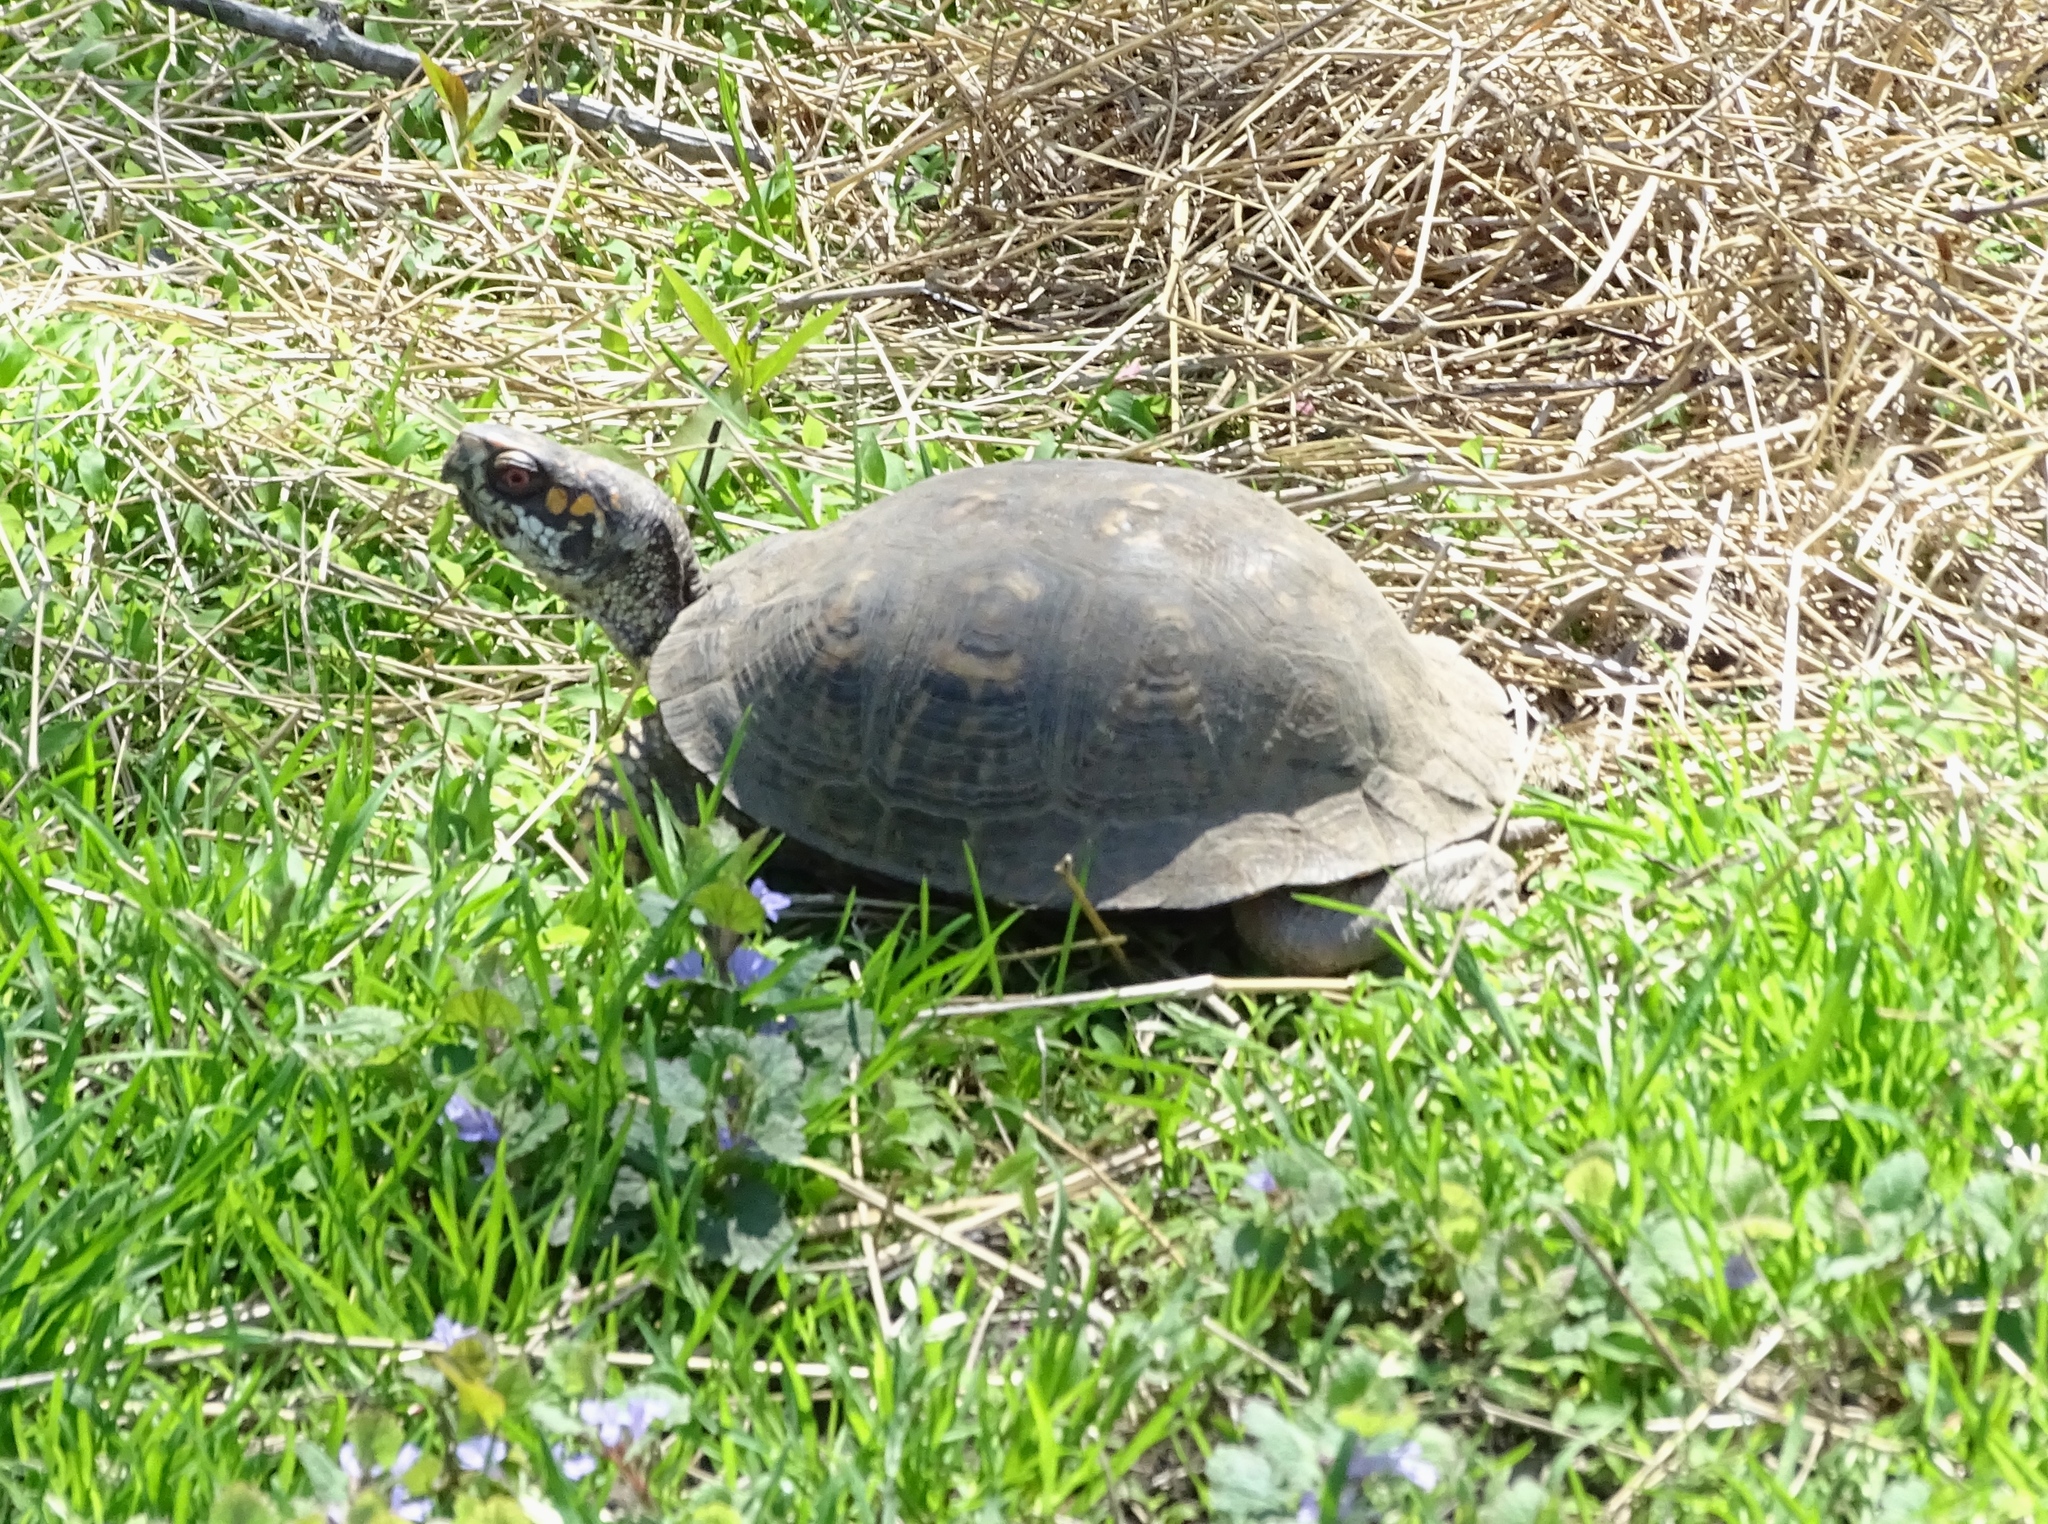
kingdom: Animalia
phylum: Chordata
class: Testudines
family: Emydidae
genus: Terrapene
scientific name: Terrapene carolina
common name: Common box turtle
